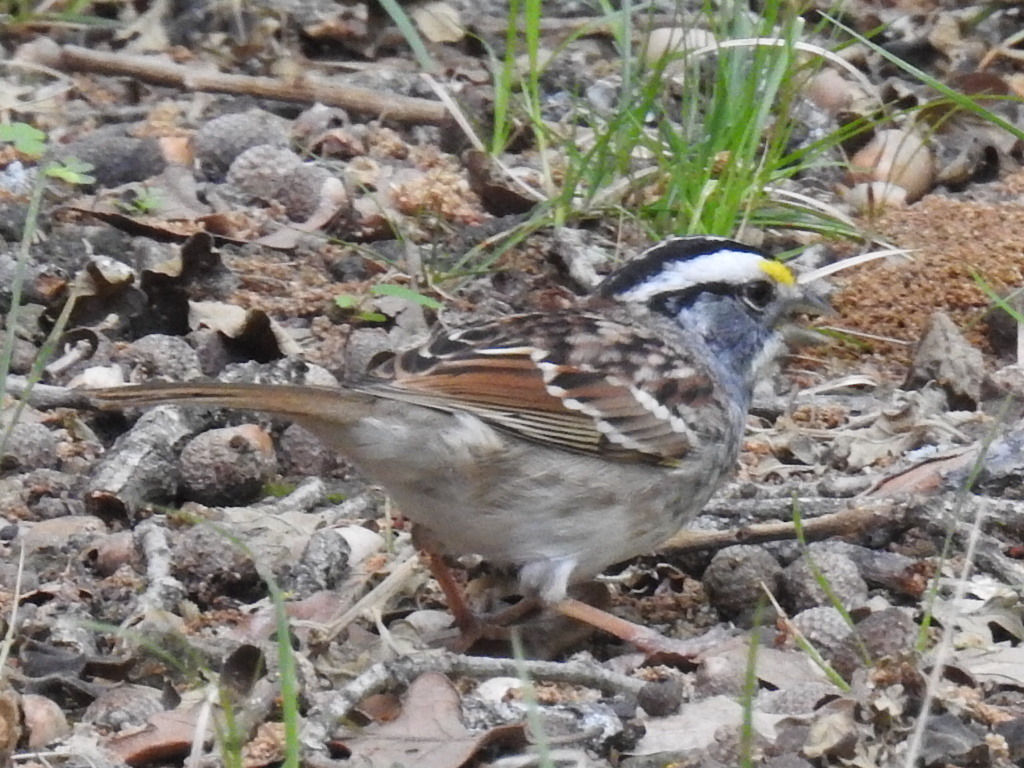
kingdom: Animalia
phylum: Chordata
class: Aves
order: Passeriformes
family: Passerellidae
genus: Zonotrichia
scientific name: Zonotrichia albicollis
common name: White-throated sparrow
